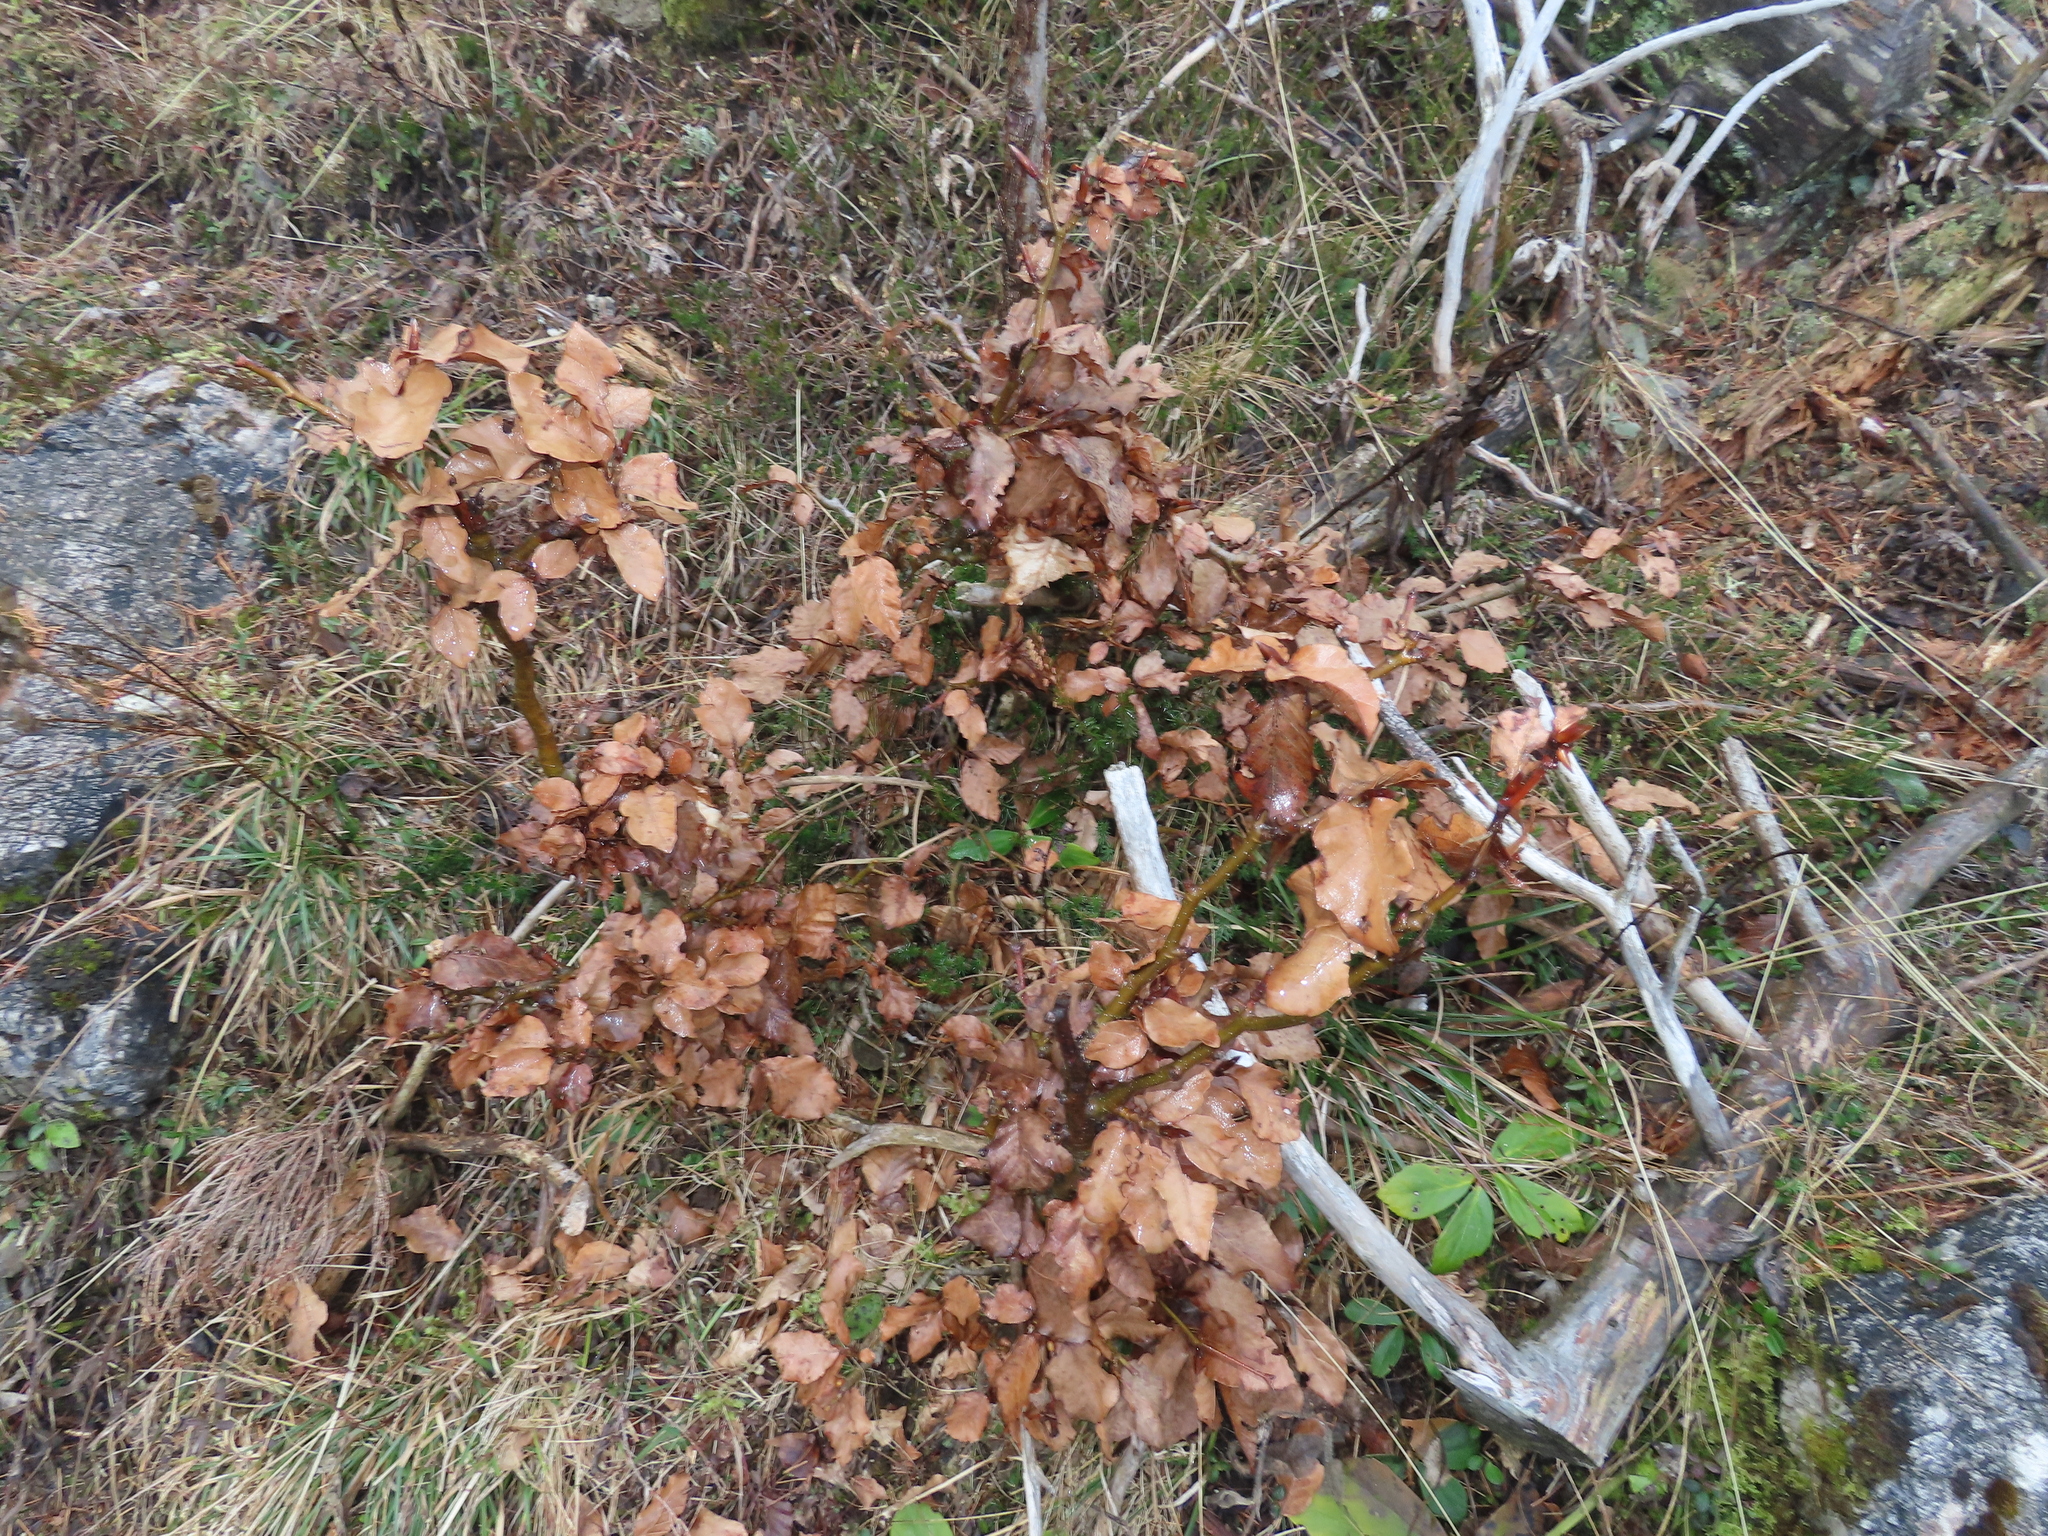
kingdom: Plantae
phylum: Tracheophyta
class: Magnoliopsida
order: Fagales
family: Fagaceae
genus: Fagus
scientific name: Fagus sylvatica
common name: Beech
